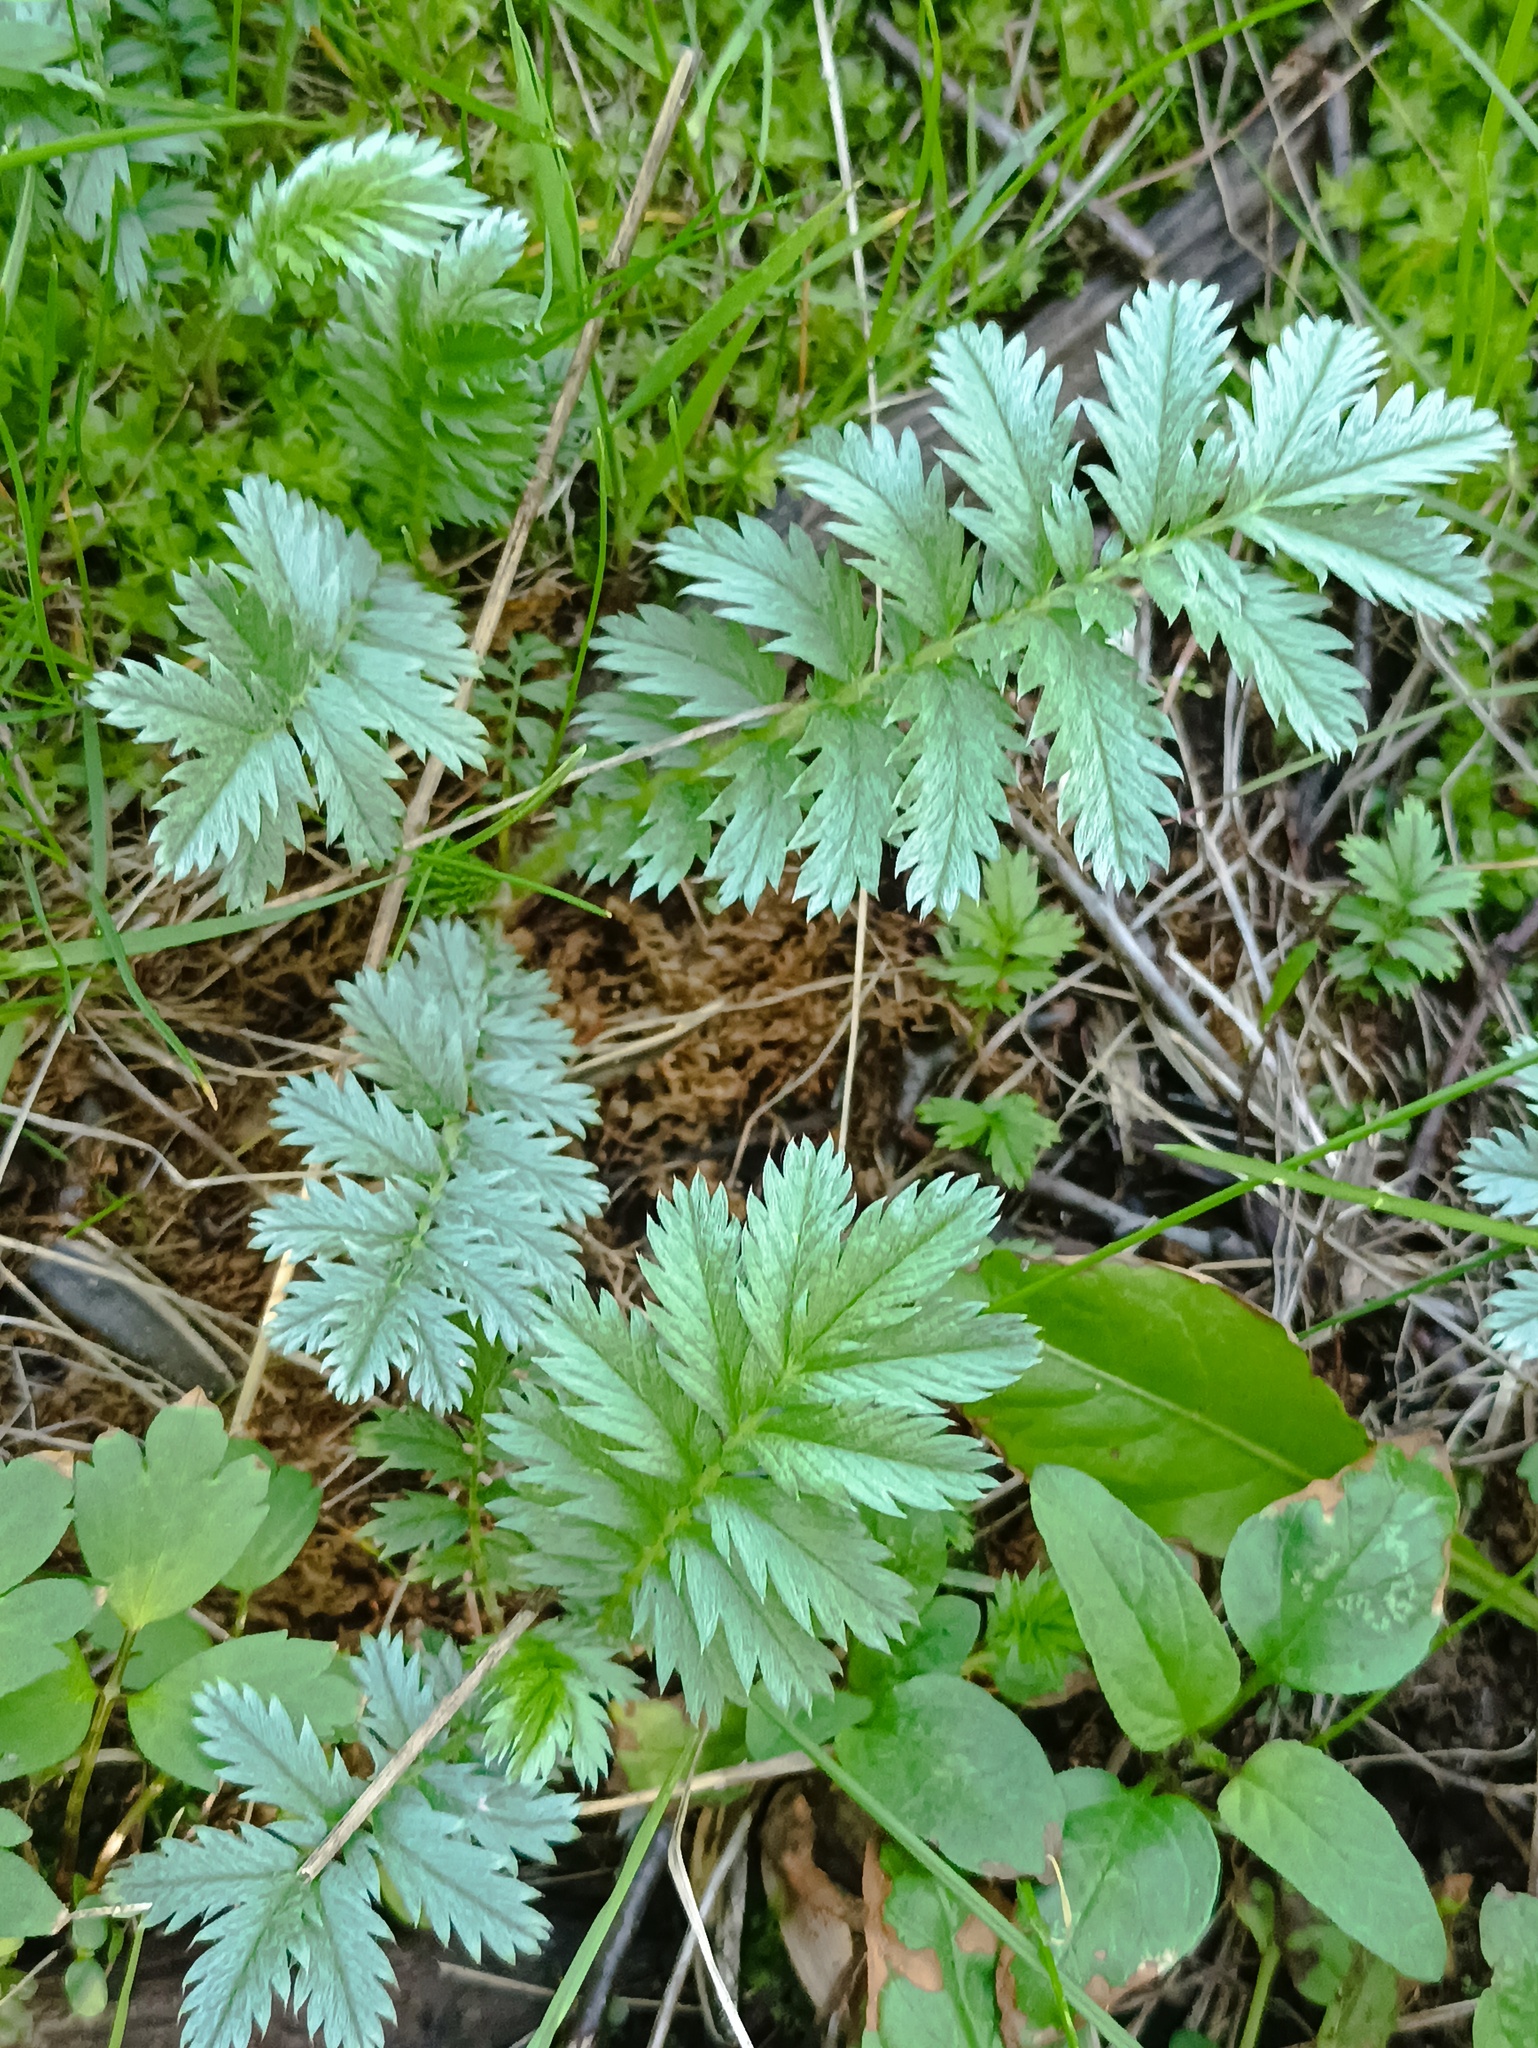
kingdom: Plantae
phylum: Tracheophyta
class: Magnoliopsida
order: Rosales
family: Rosaceae
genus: Argentina
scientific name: Argentina anserina
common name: Common silverweed
